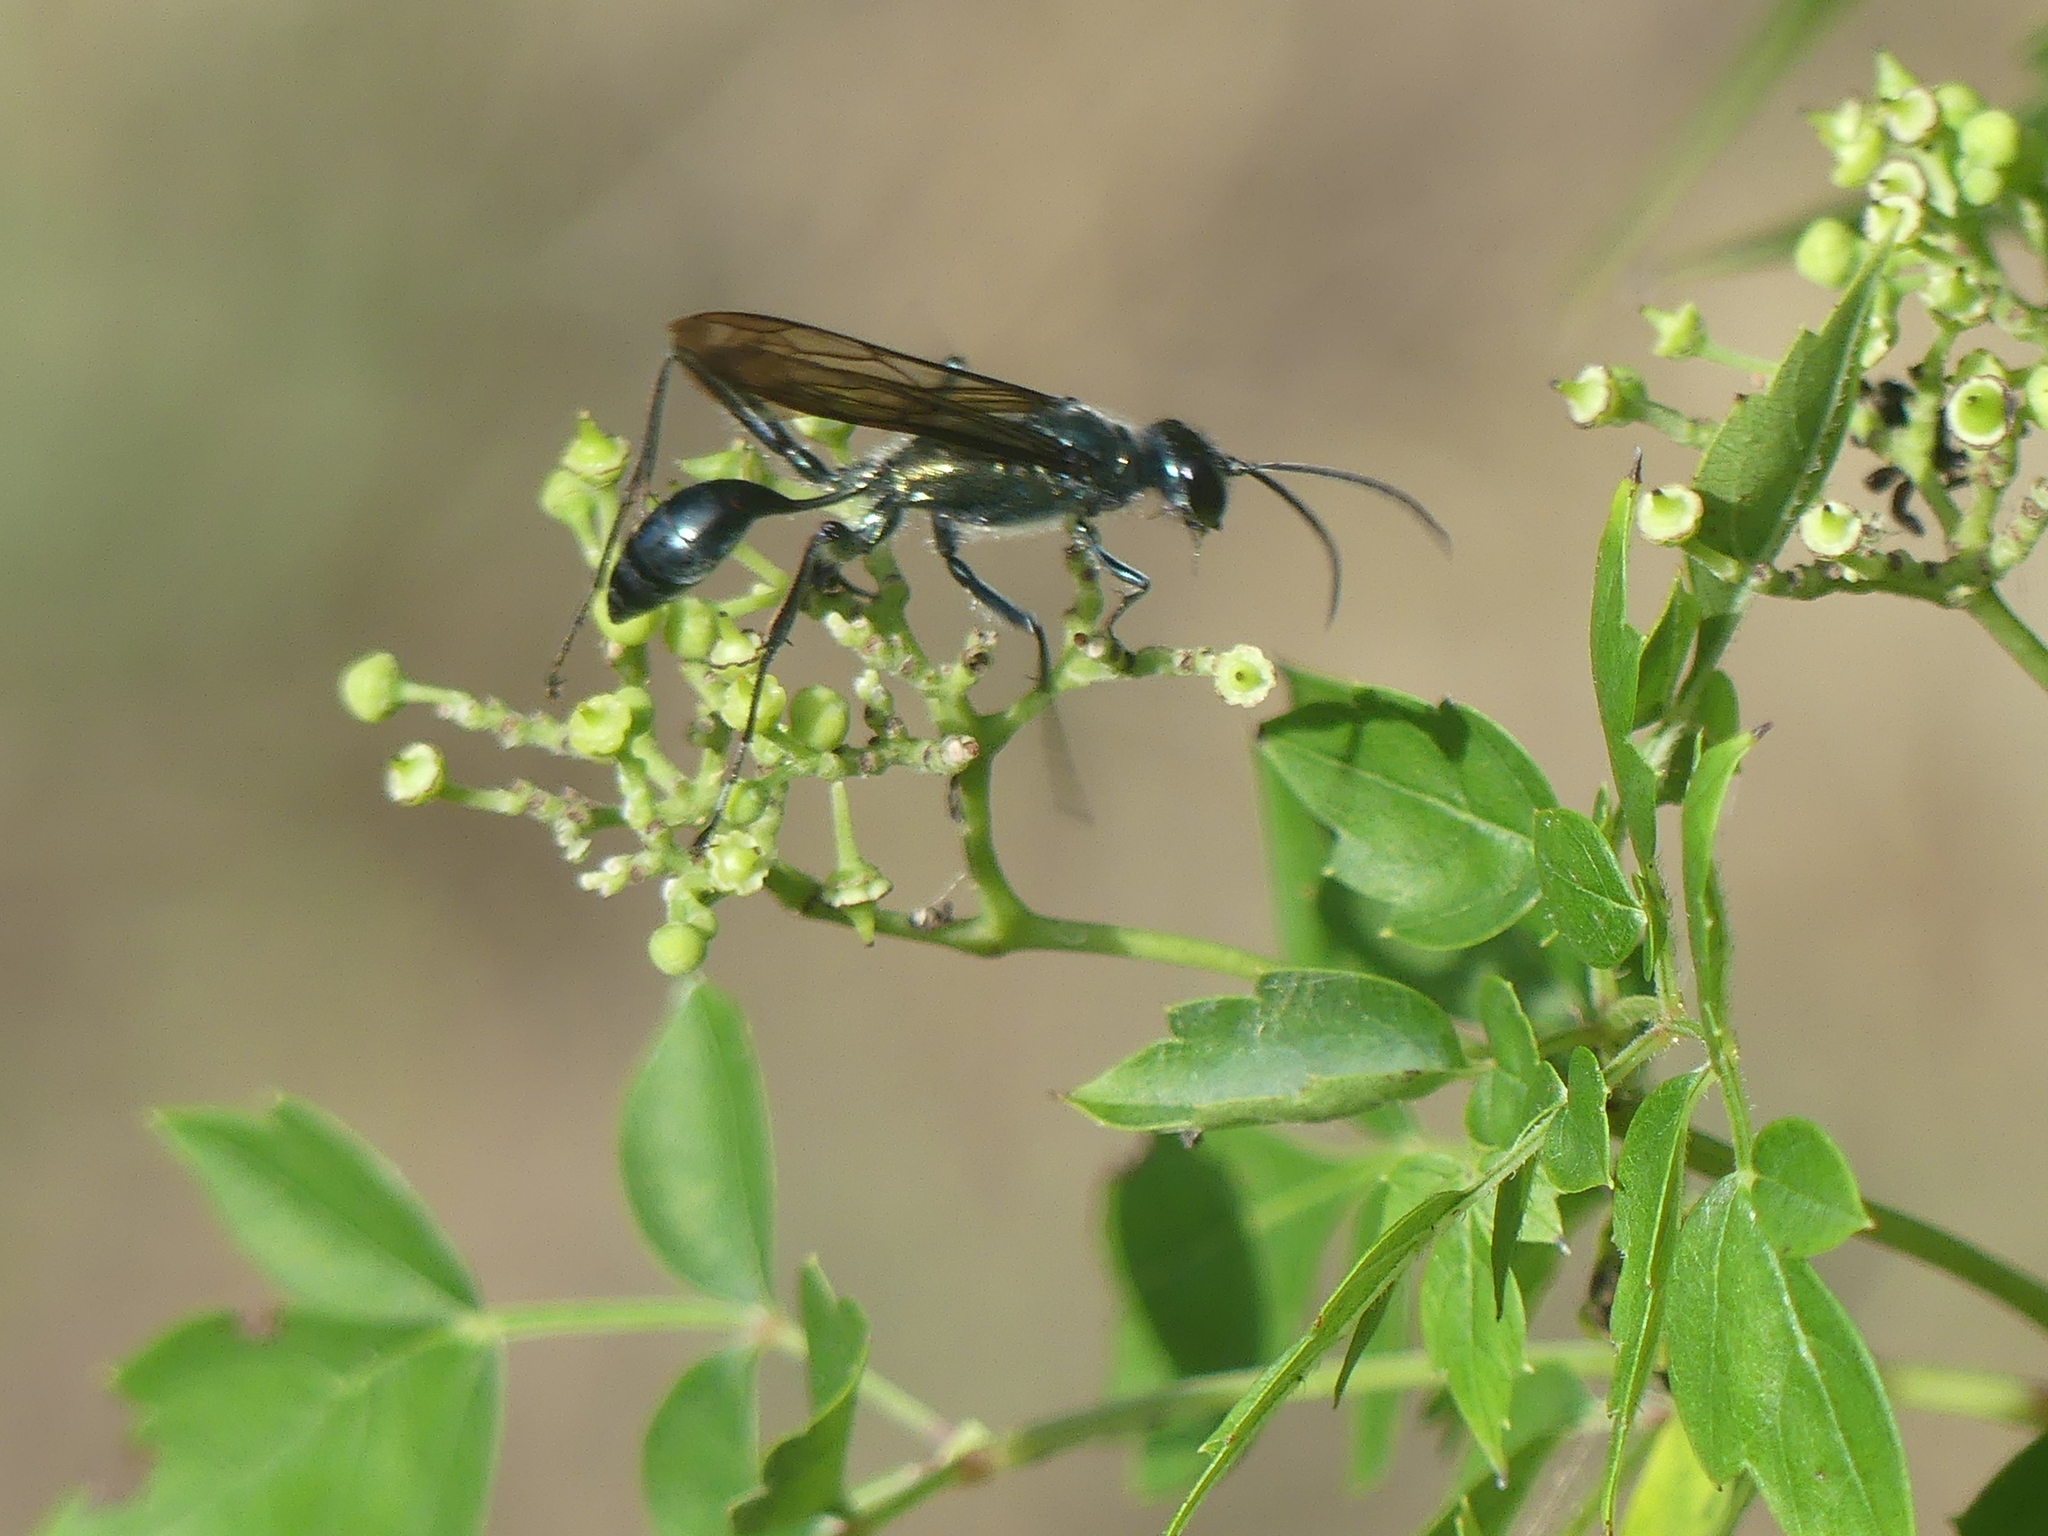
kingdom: Animalia
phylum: Arthropoda
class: Insecta
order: Hymenoptera
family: Sphecidae
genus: Chalybion
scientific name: Chalybion zimmermanni
